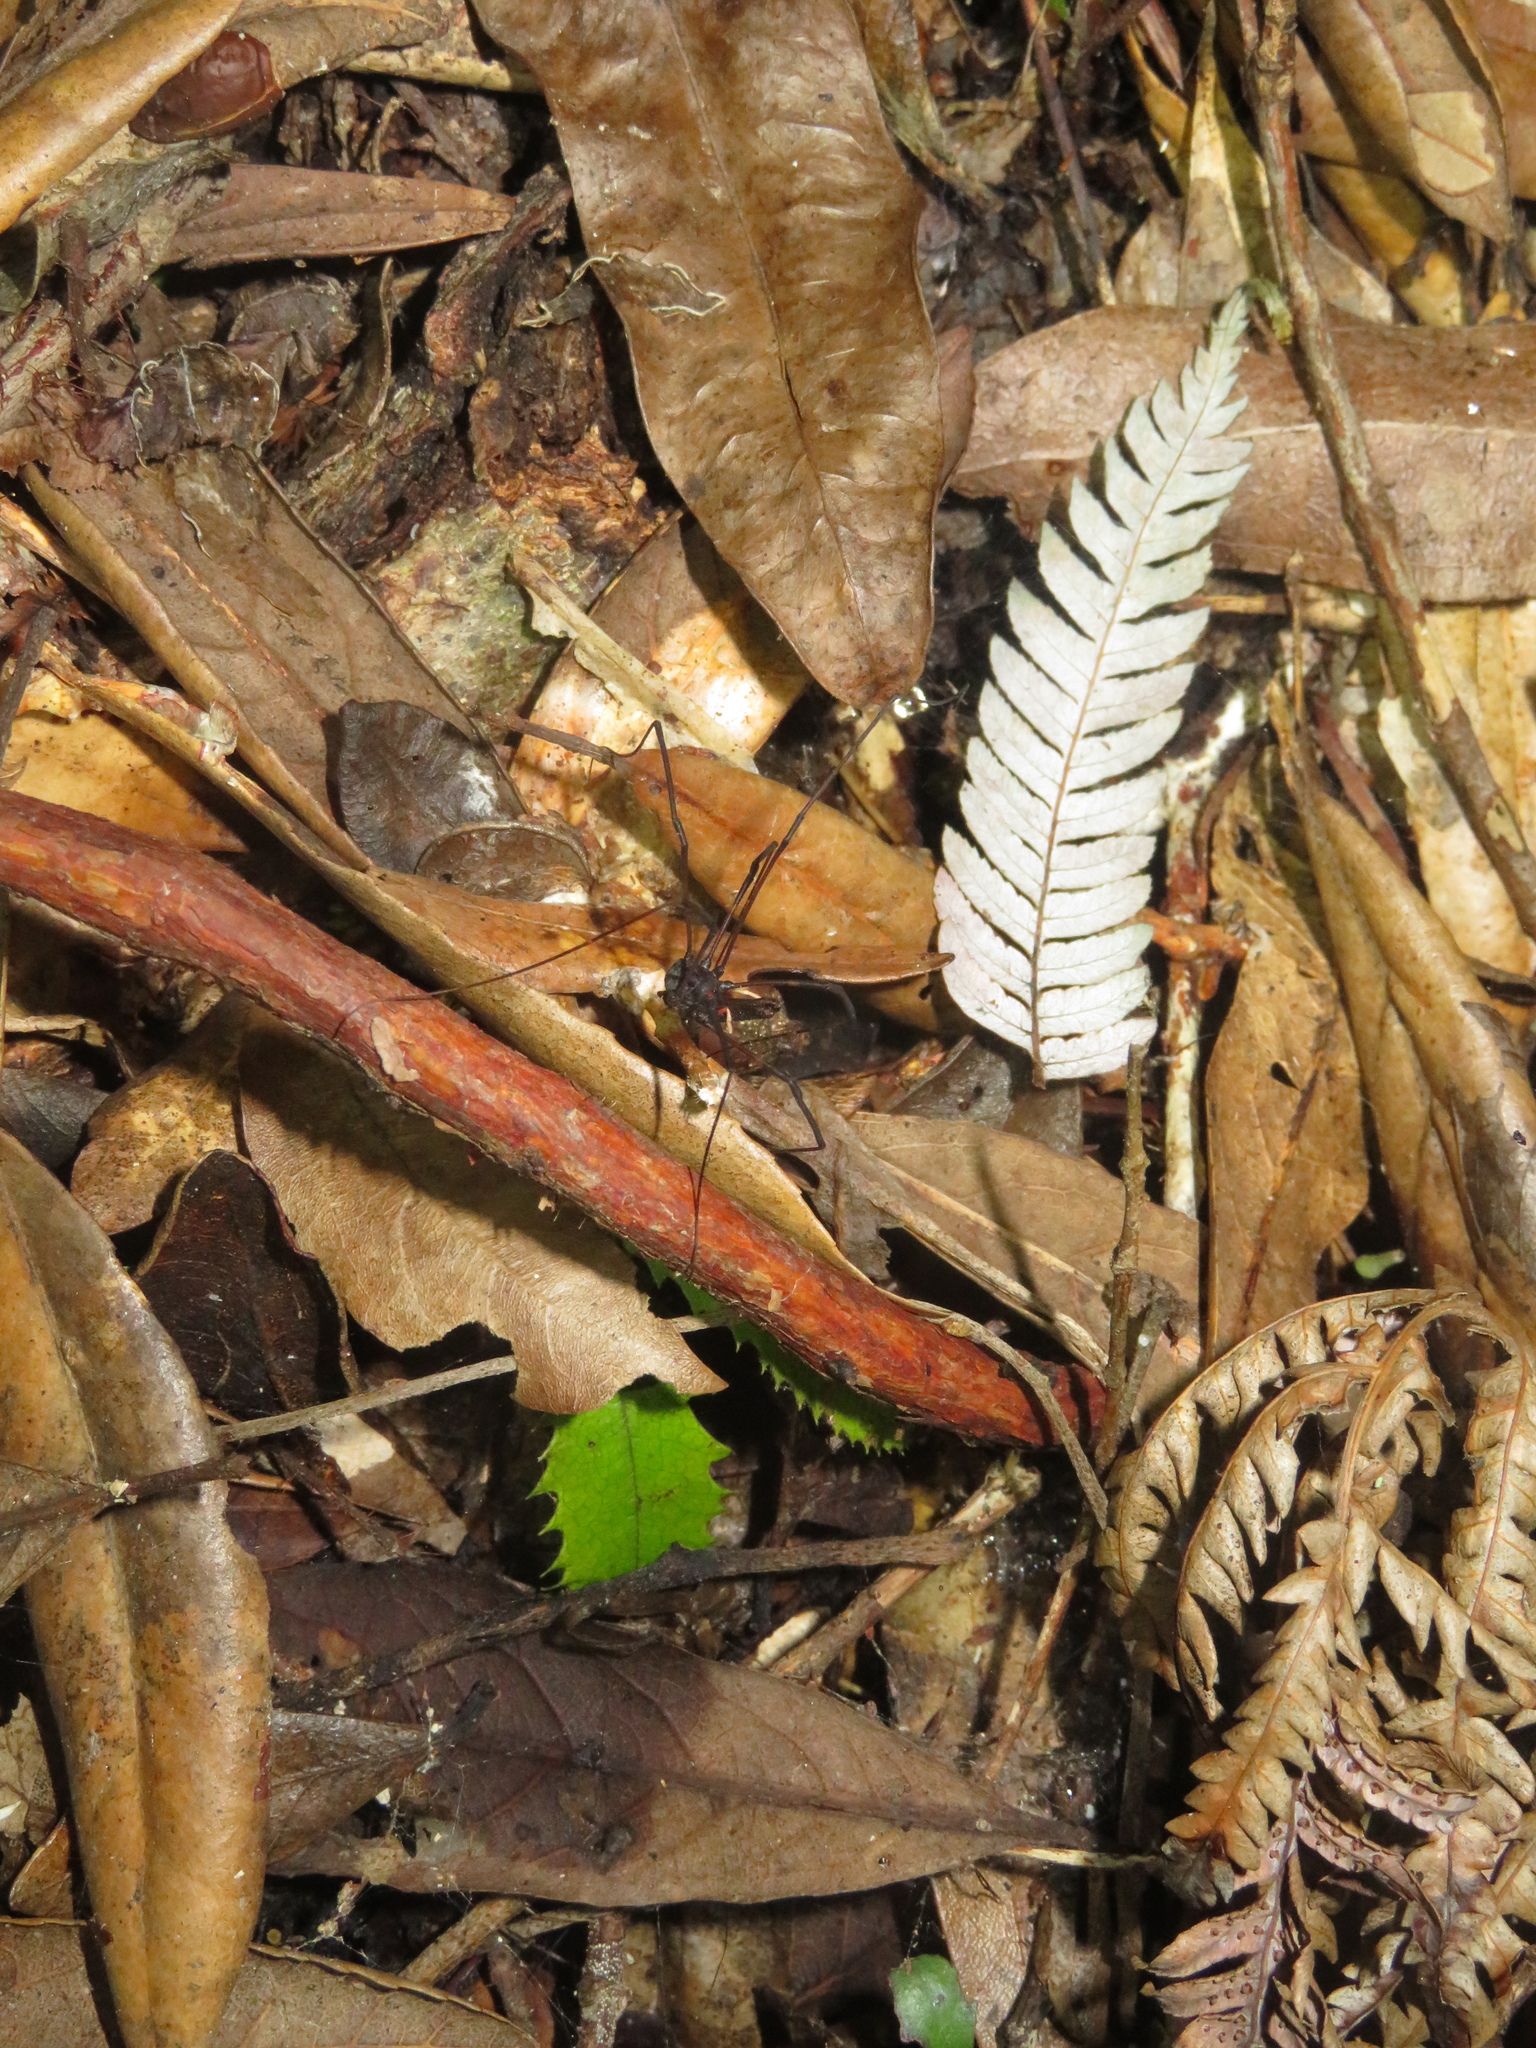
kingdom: Animalia
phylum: Arthropoda
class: Arachnida
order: Opiliones
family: Neopilionidae
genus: Forsteropsalis
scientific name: Forsteropsalis inconstans
